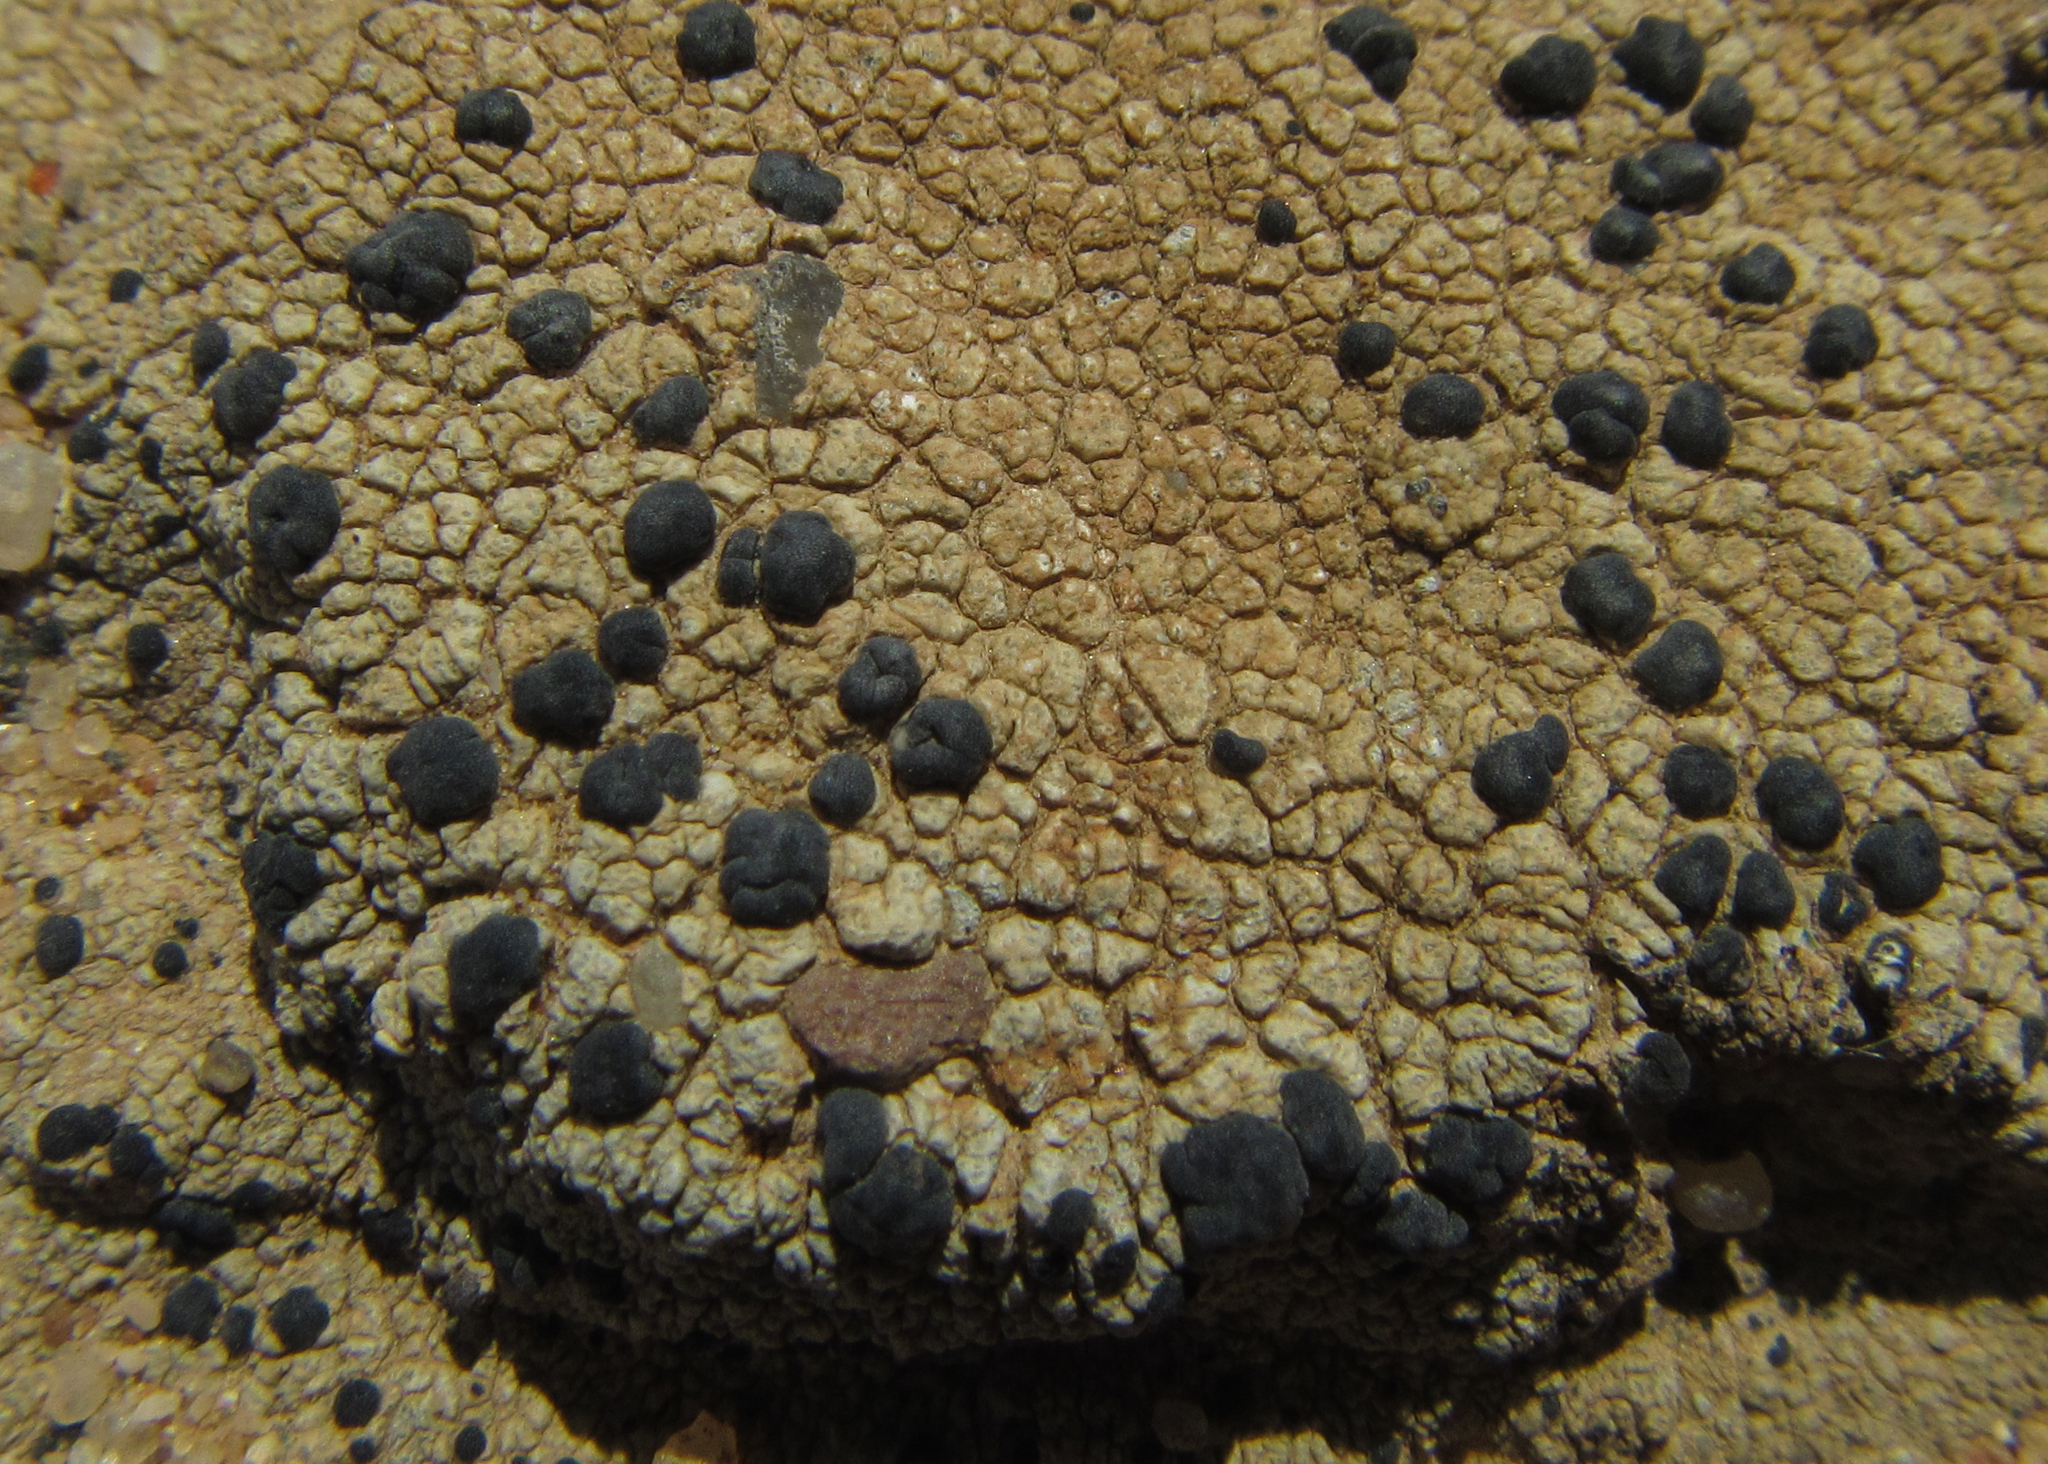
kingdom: Fungi
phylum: Ascomycota
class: Lecanoromycetes
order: Lecanorales
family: Lecanoraceae
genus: Lecidella
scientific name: Lecidella
